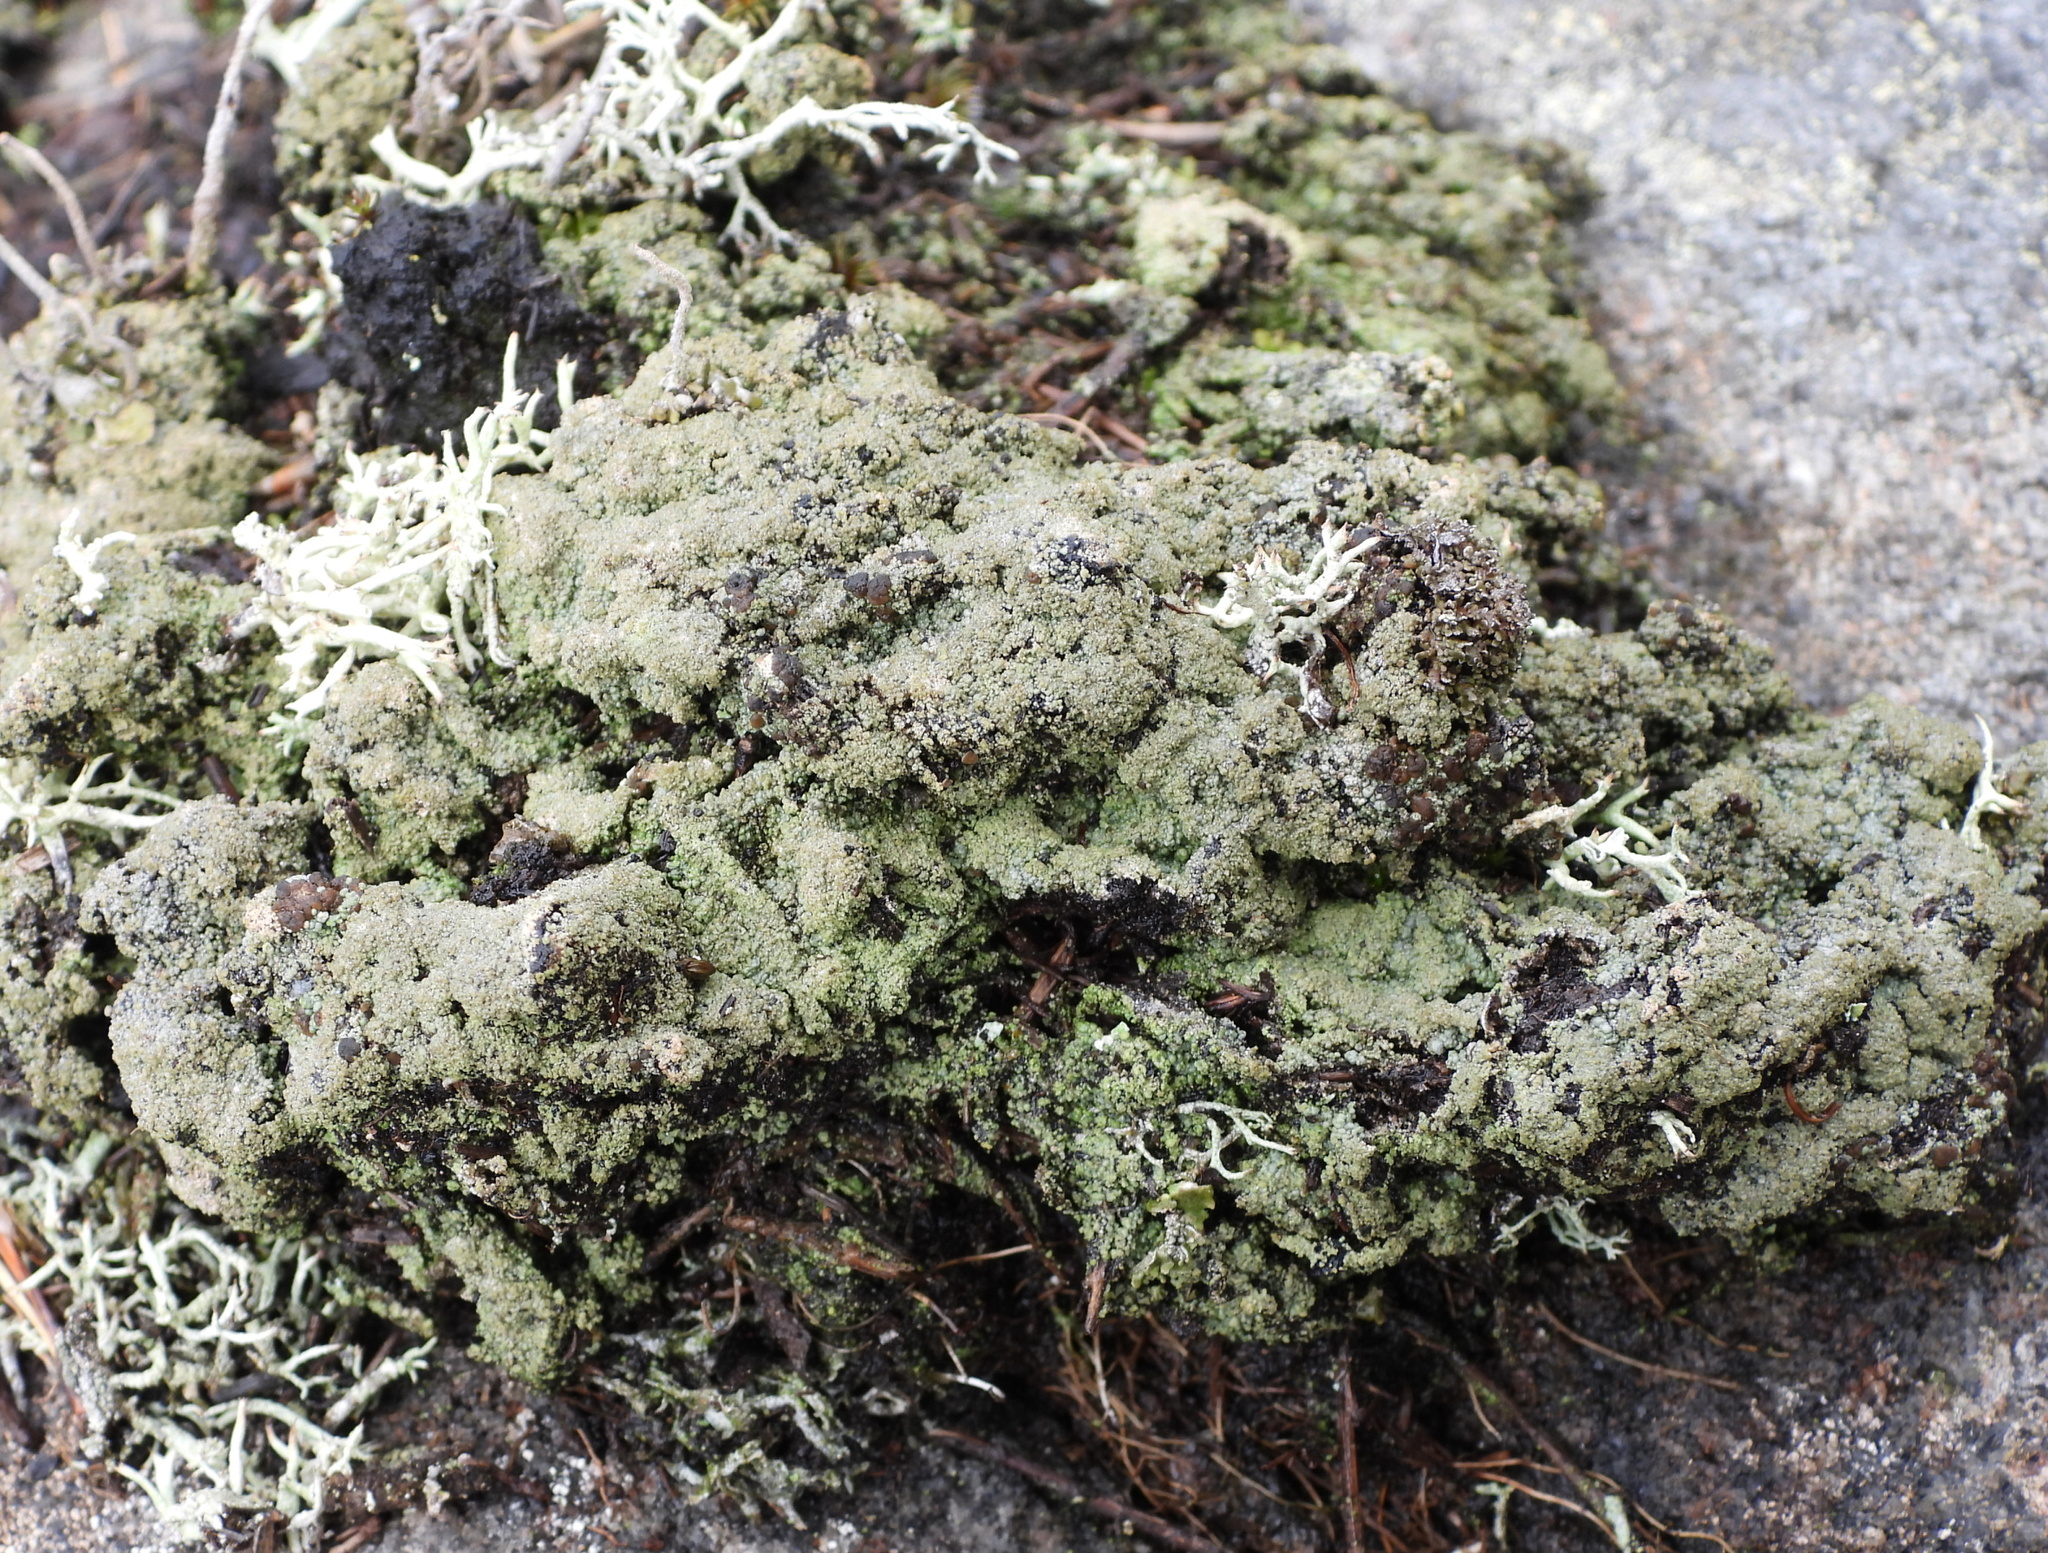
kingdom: Fungi
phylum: Ascomycota
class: Lecanoromycetes
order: Baeomycetales
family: Trapeliaceae
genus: Trapeliopsis
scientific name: Trapeliopsis granulosa
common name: Granular mottled-disk lichen
